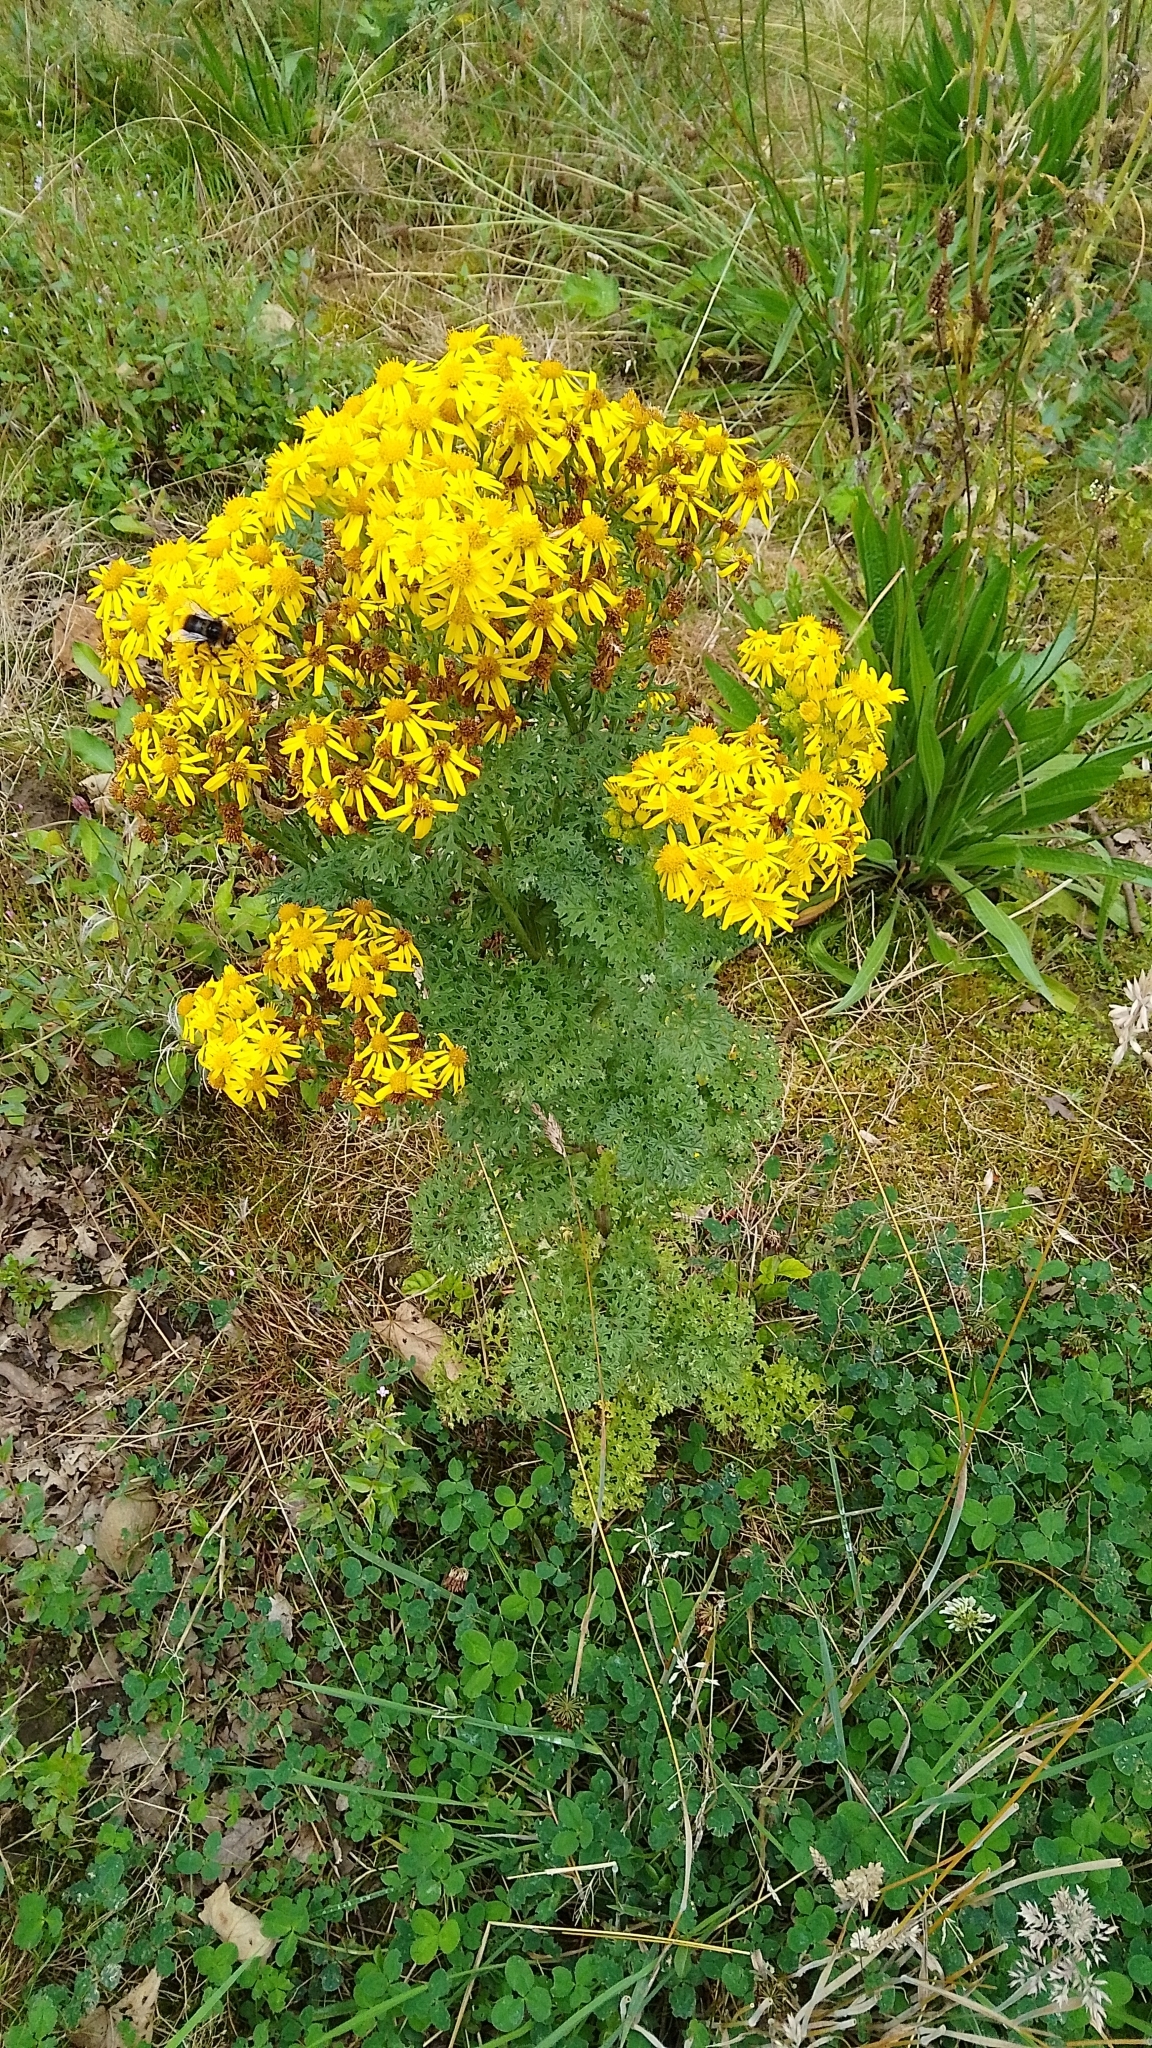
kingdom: Plantae
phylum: Tracheophyta
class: Magnoliopsida
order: Asterales
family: Asteraceae
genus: Jacobaea
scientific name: Jacobaea vulgaris
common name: Stinking willie
